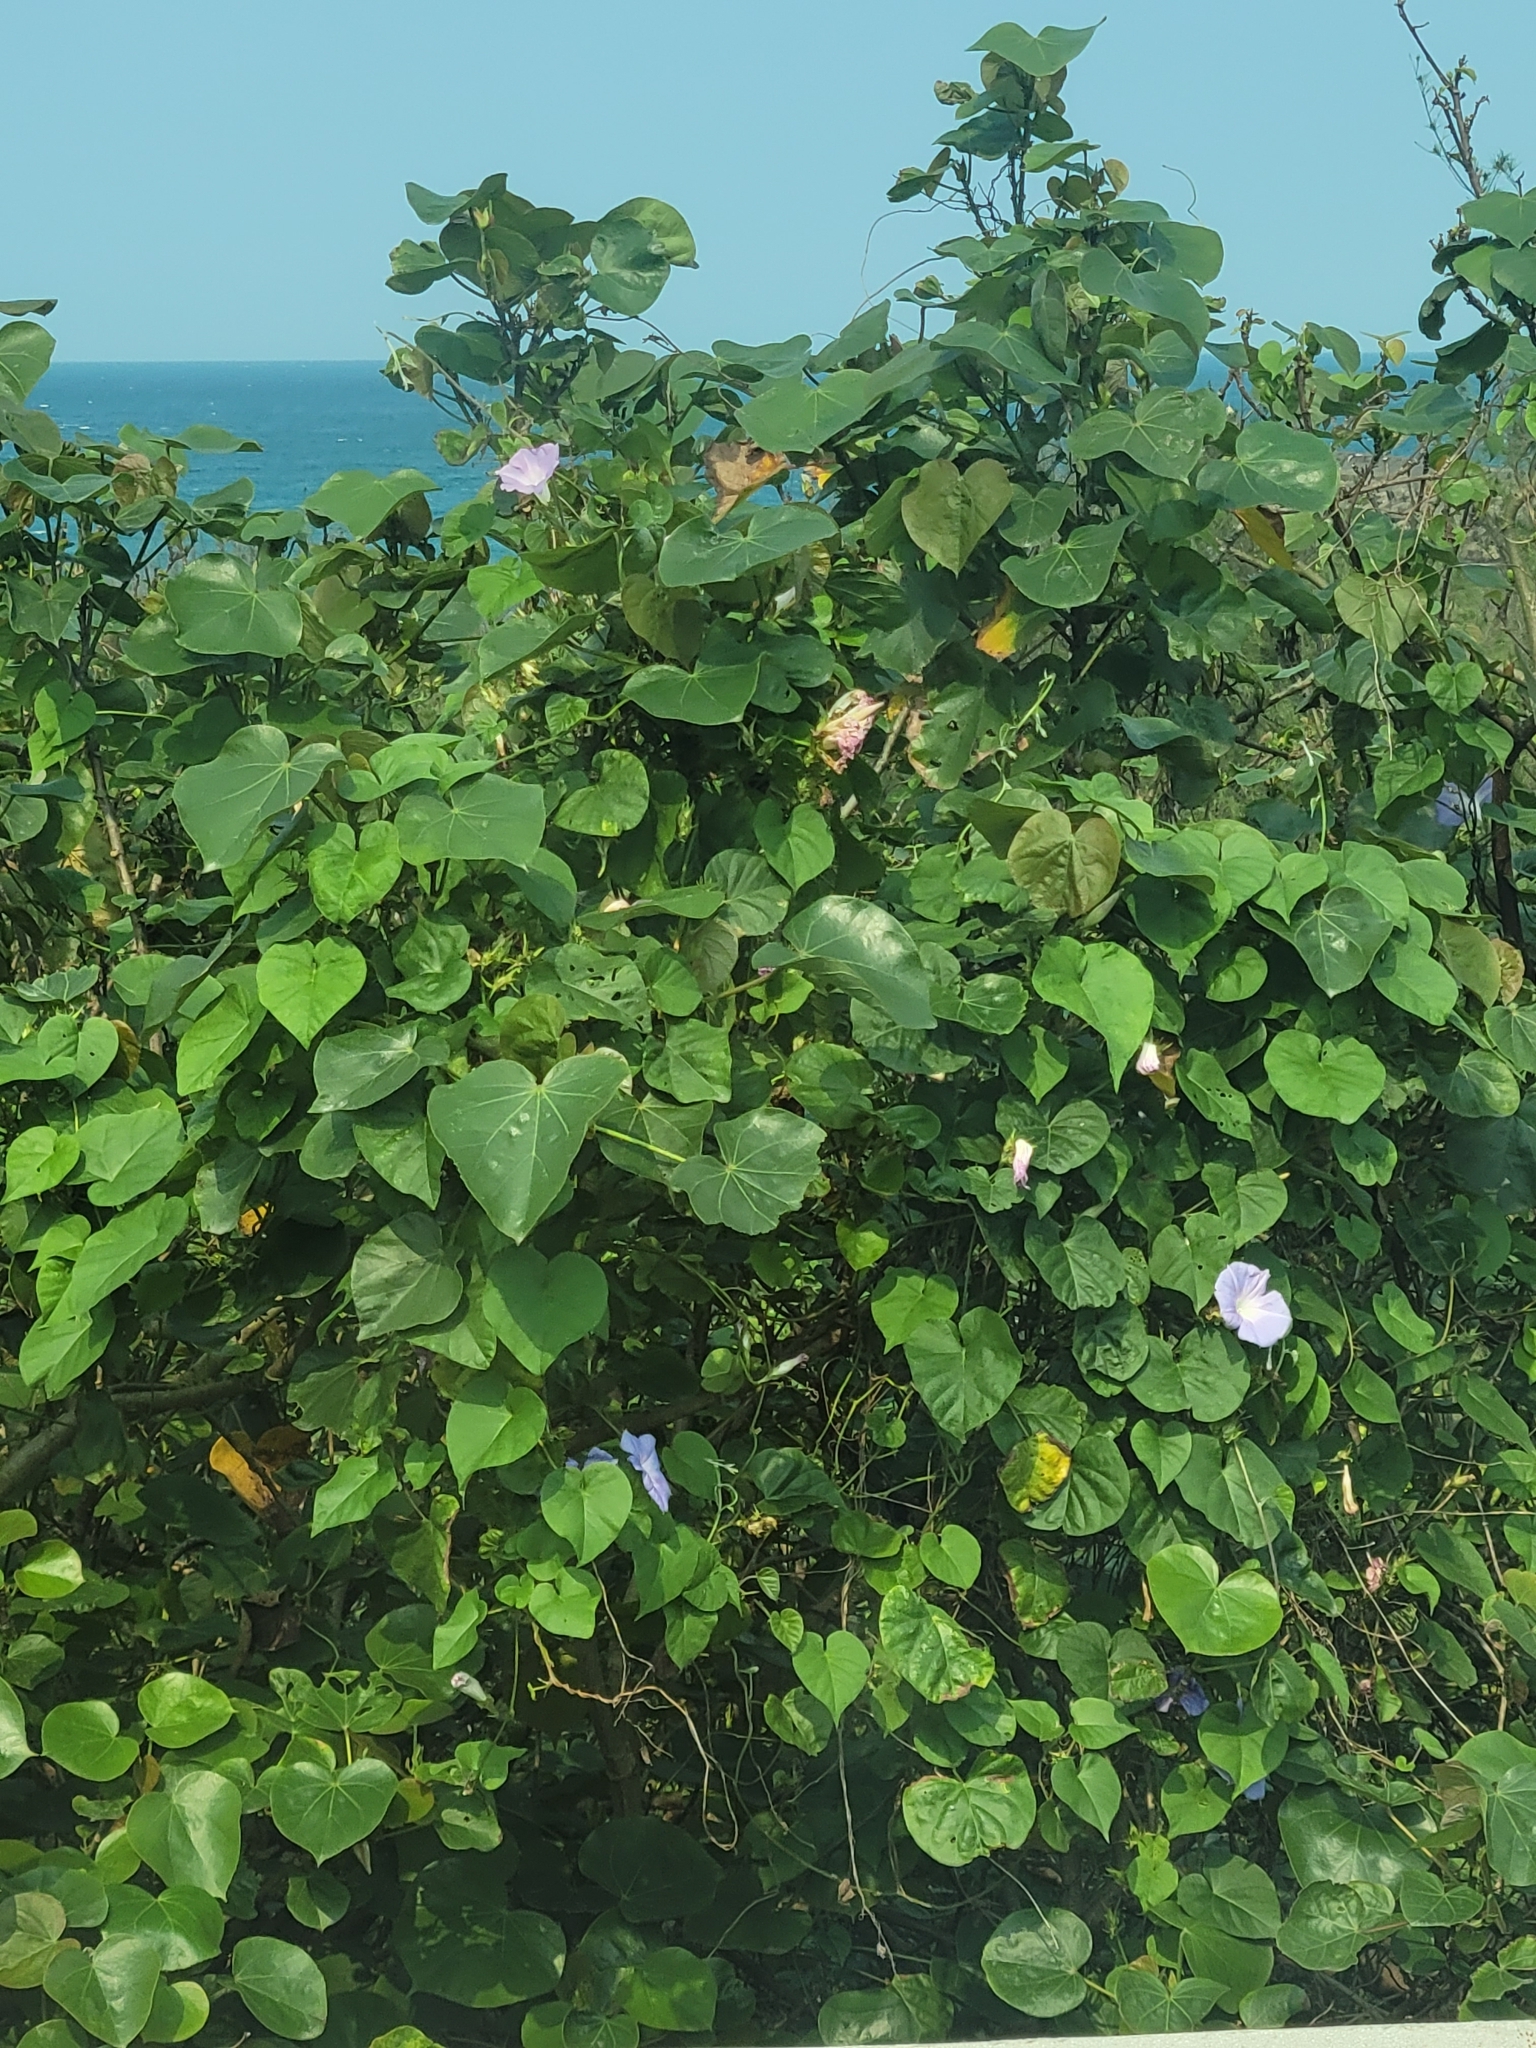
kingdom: Plantae
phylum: Tracheophyta
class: Magnoliopsida
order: Solanales
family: Convolvulaceae
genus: Ipomoea
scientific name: Ipomoea indica
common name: Blue dawnflower
